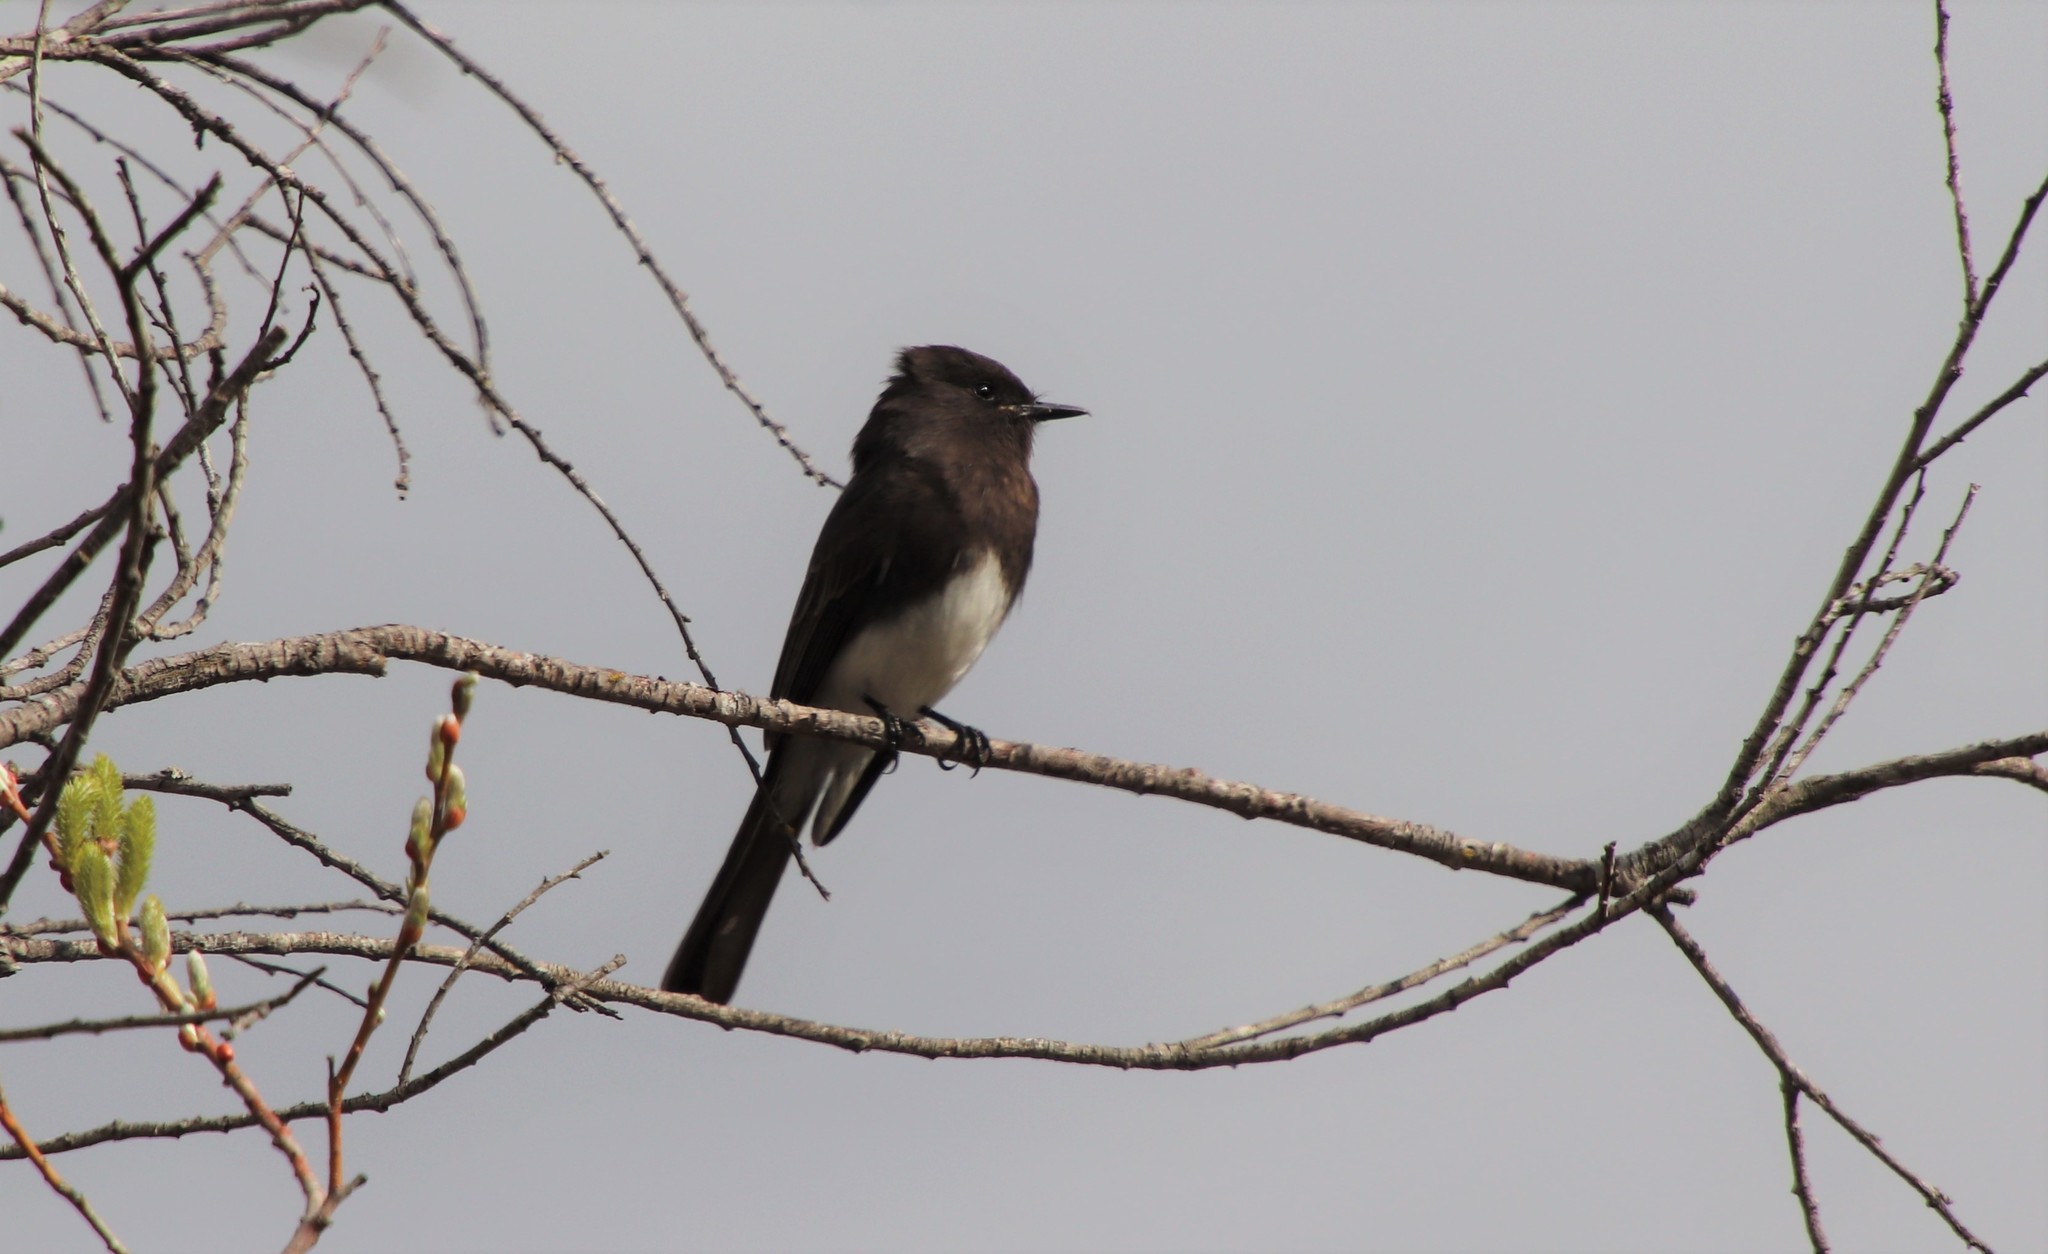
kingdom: Animalia
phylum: Chordata
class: Aves
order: Passeriformes
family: Tyrannidae
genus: Sayornis
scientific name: Sayornis nigricans
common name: Black phoebe
